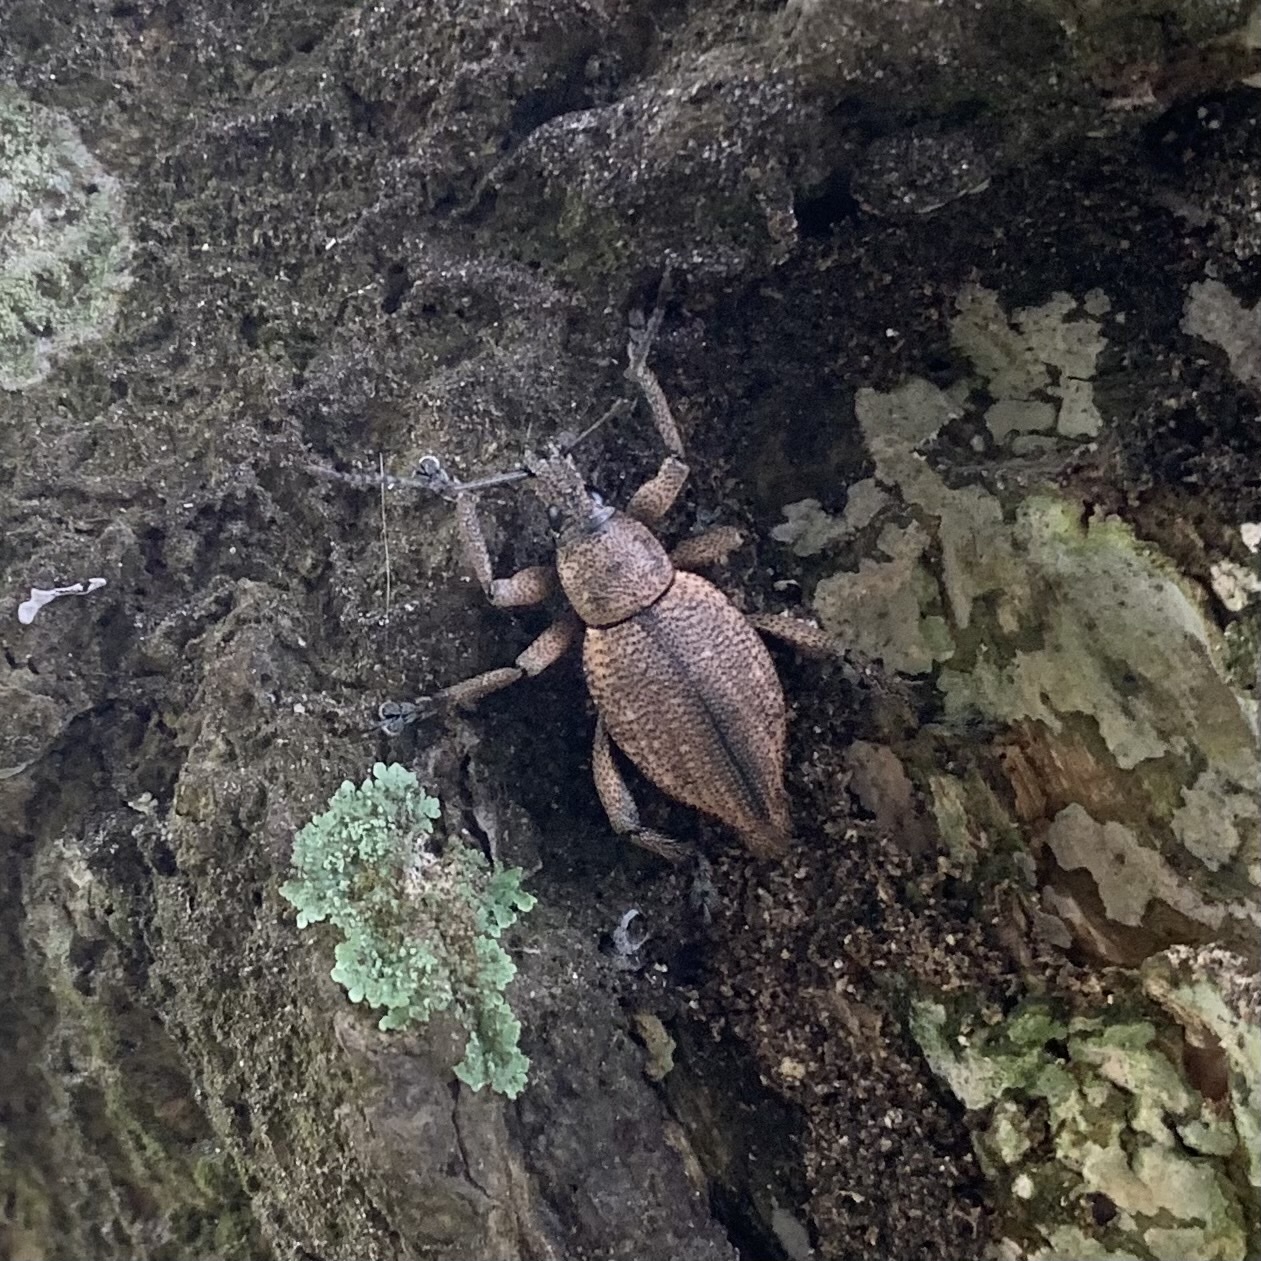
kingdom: Animalia
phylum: Arthropoda
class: Insecta
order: Coleoptera
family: Curculionidae
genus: Elytrurus
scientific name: Elytrurus serrulatus
